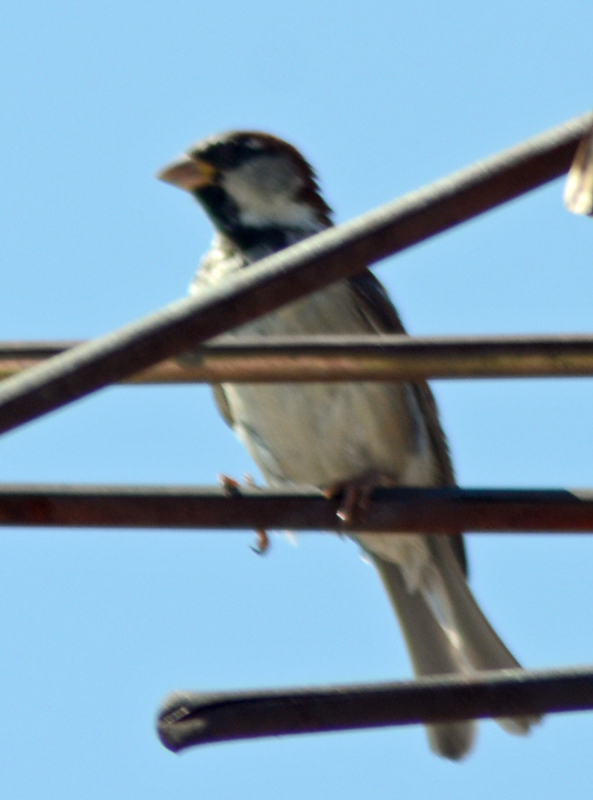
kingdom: Animalia
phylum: Chordata
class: Aves
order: Passeriformes
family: Passeridae
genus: Passer
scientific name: Passer domesticus
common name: House sparrow
